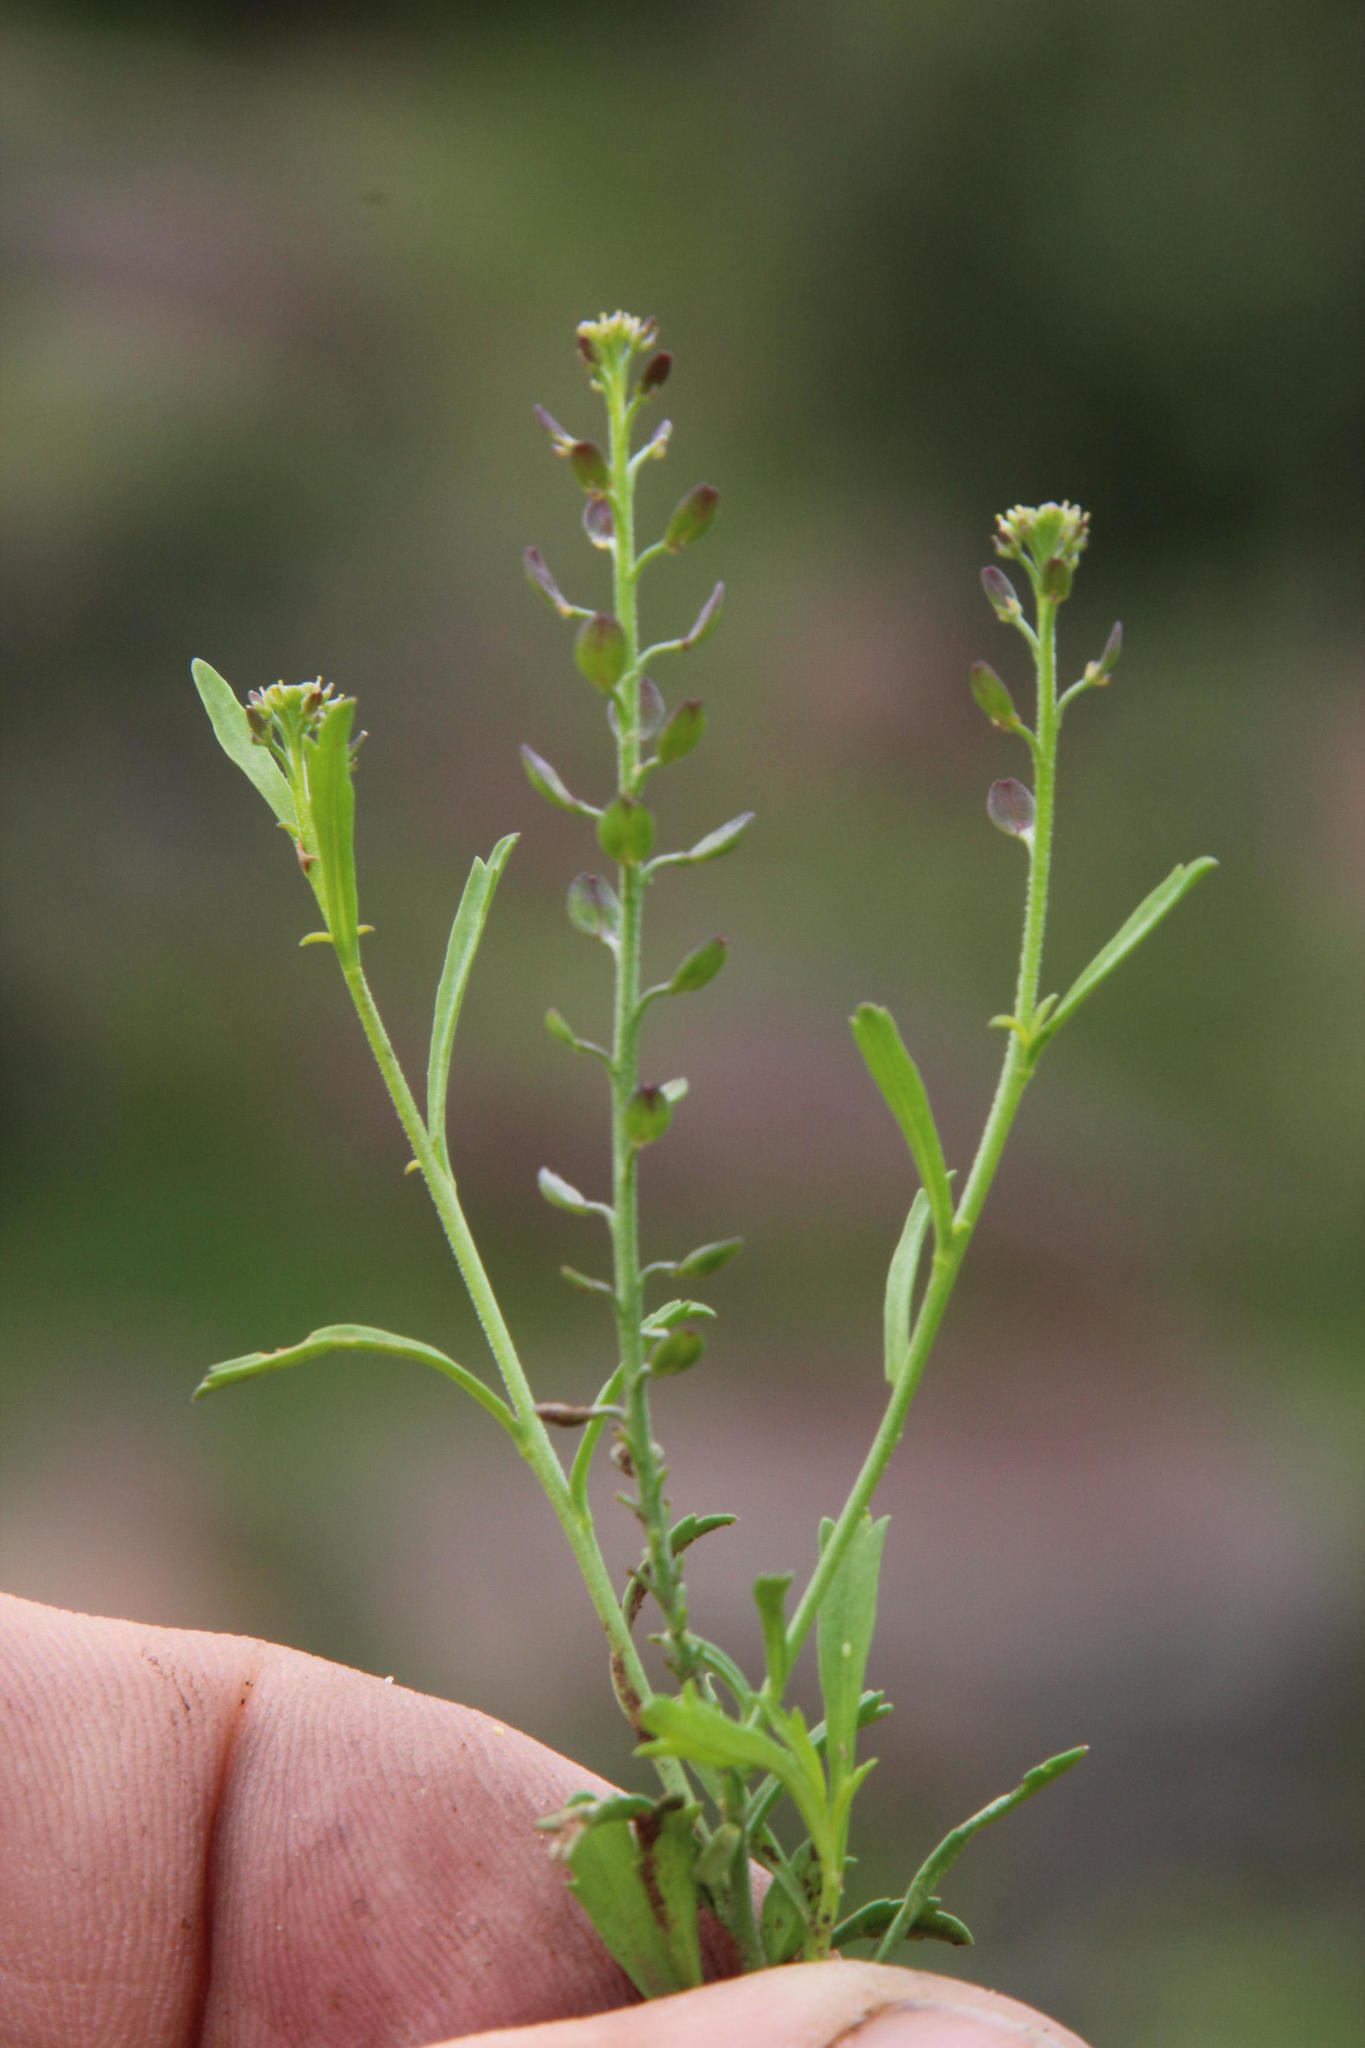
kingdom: Plantae
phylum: Tracheophyta
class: Magnoliopsida
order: Brassicales
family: Brassicaceae
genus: Lepidium
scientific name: Lepidium africanum
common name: African pepperwort
